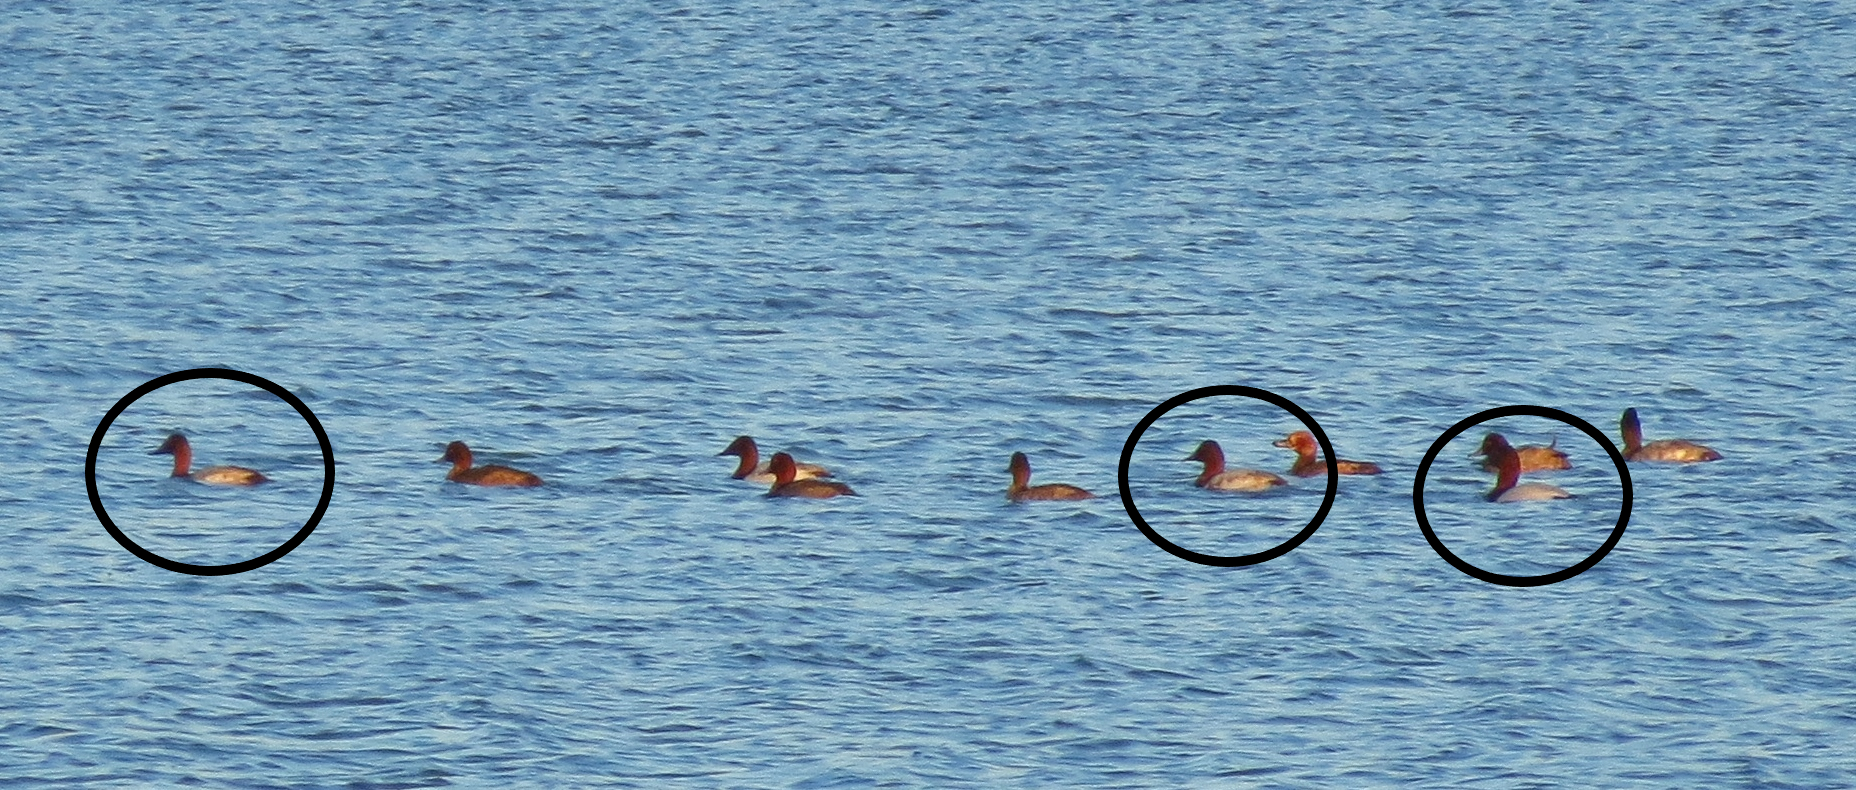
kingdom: Animalia
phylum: Chordata
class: Aves
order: Anseriformes
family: Anatidae
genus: Aythya
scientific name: Aythya valisineria
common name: Canvasback
